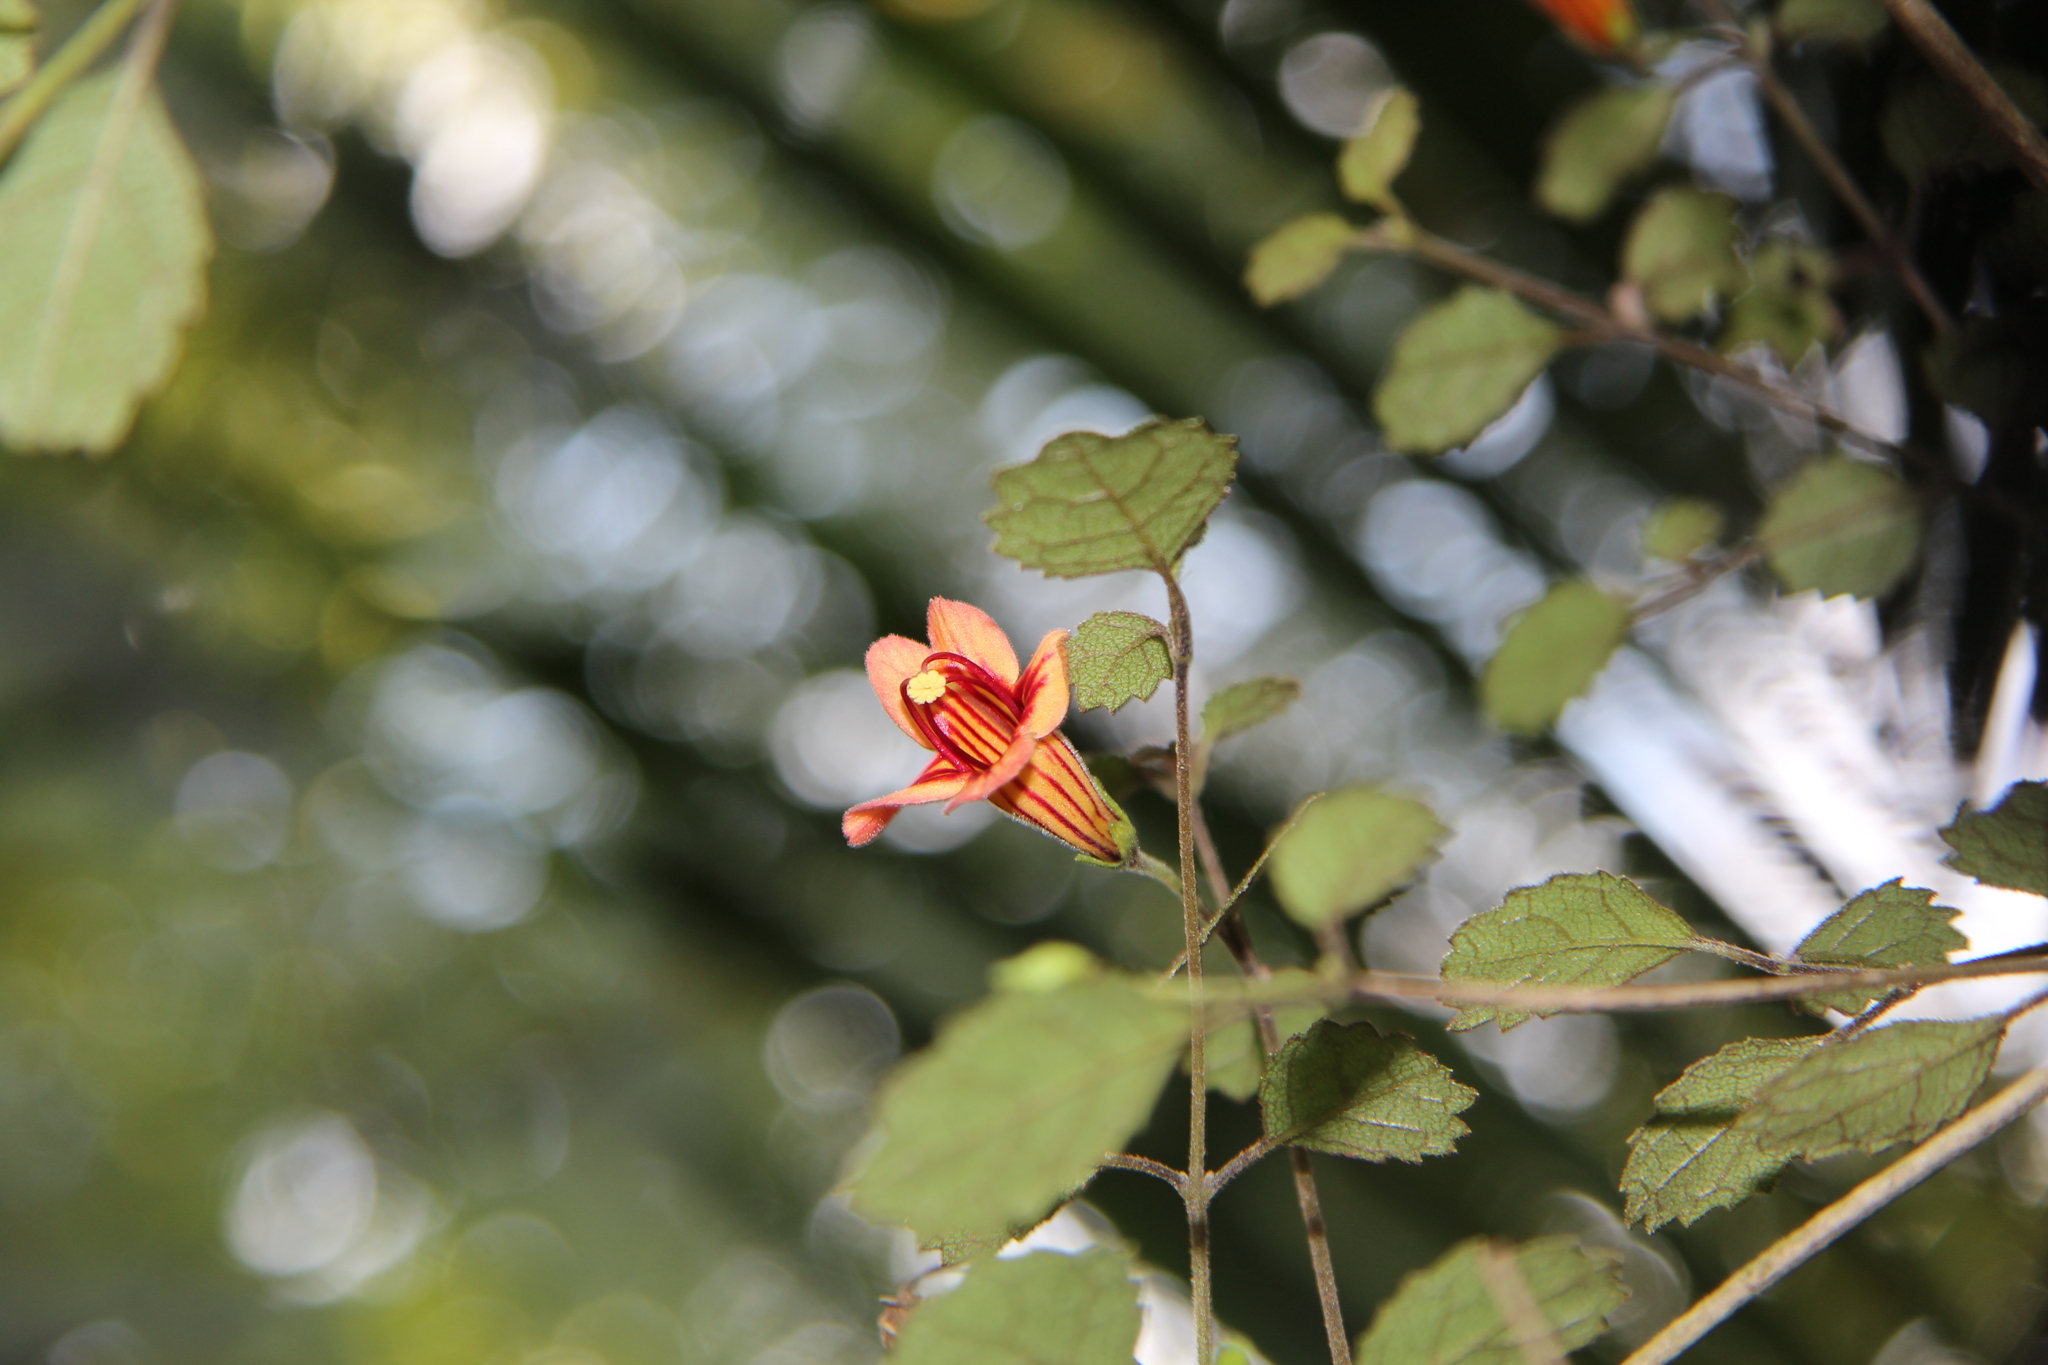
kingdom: Plantae
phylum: Tracheophyta
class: Magnoliopsida
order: Lamiales
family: Gesneriaceae
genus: Rhabdothamnus
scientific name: Rhabdothamnus solandri
